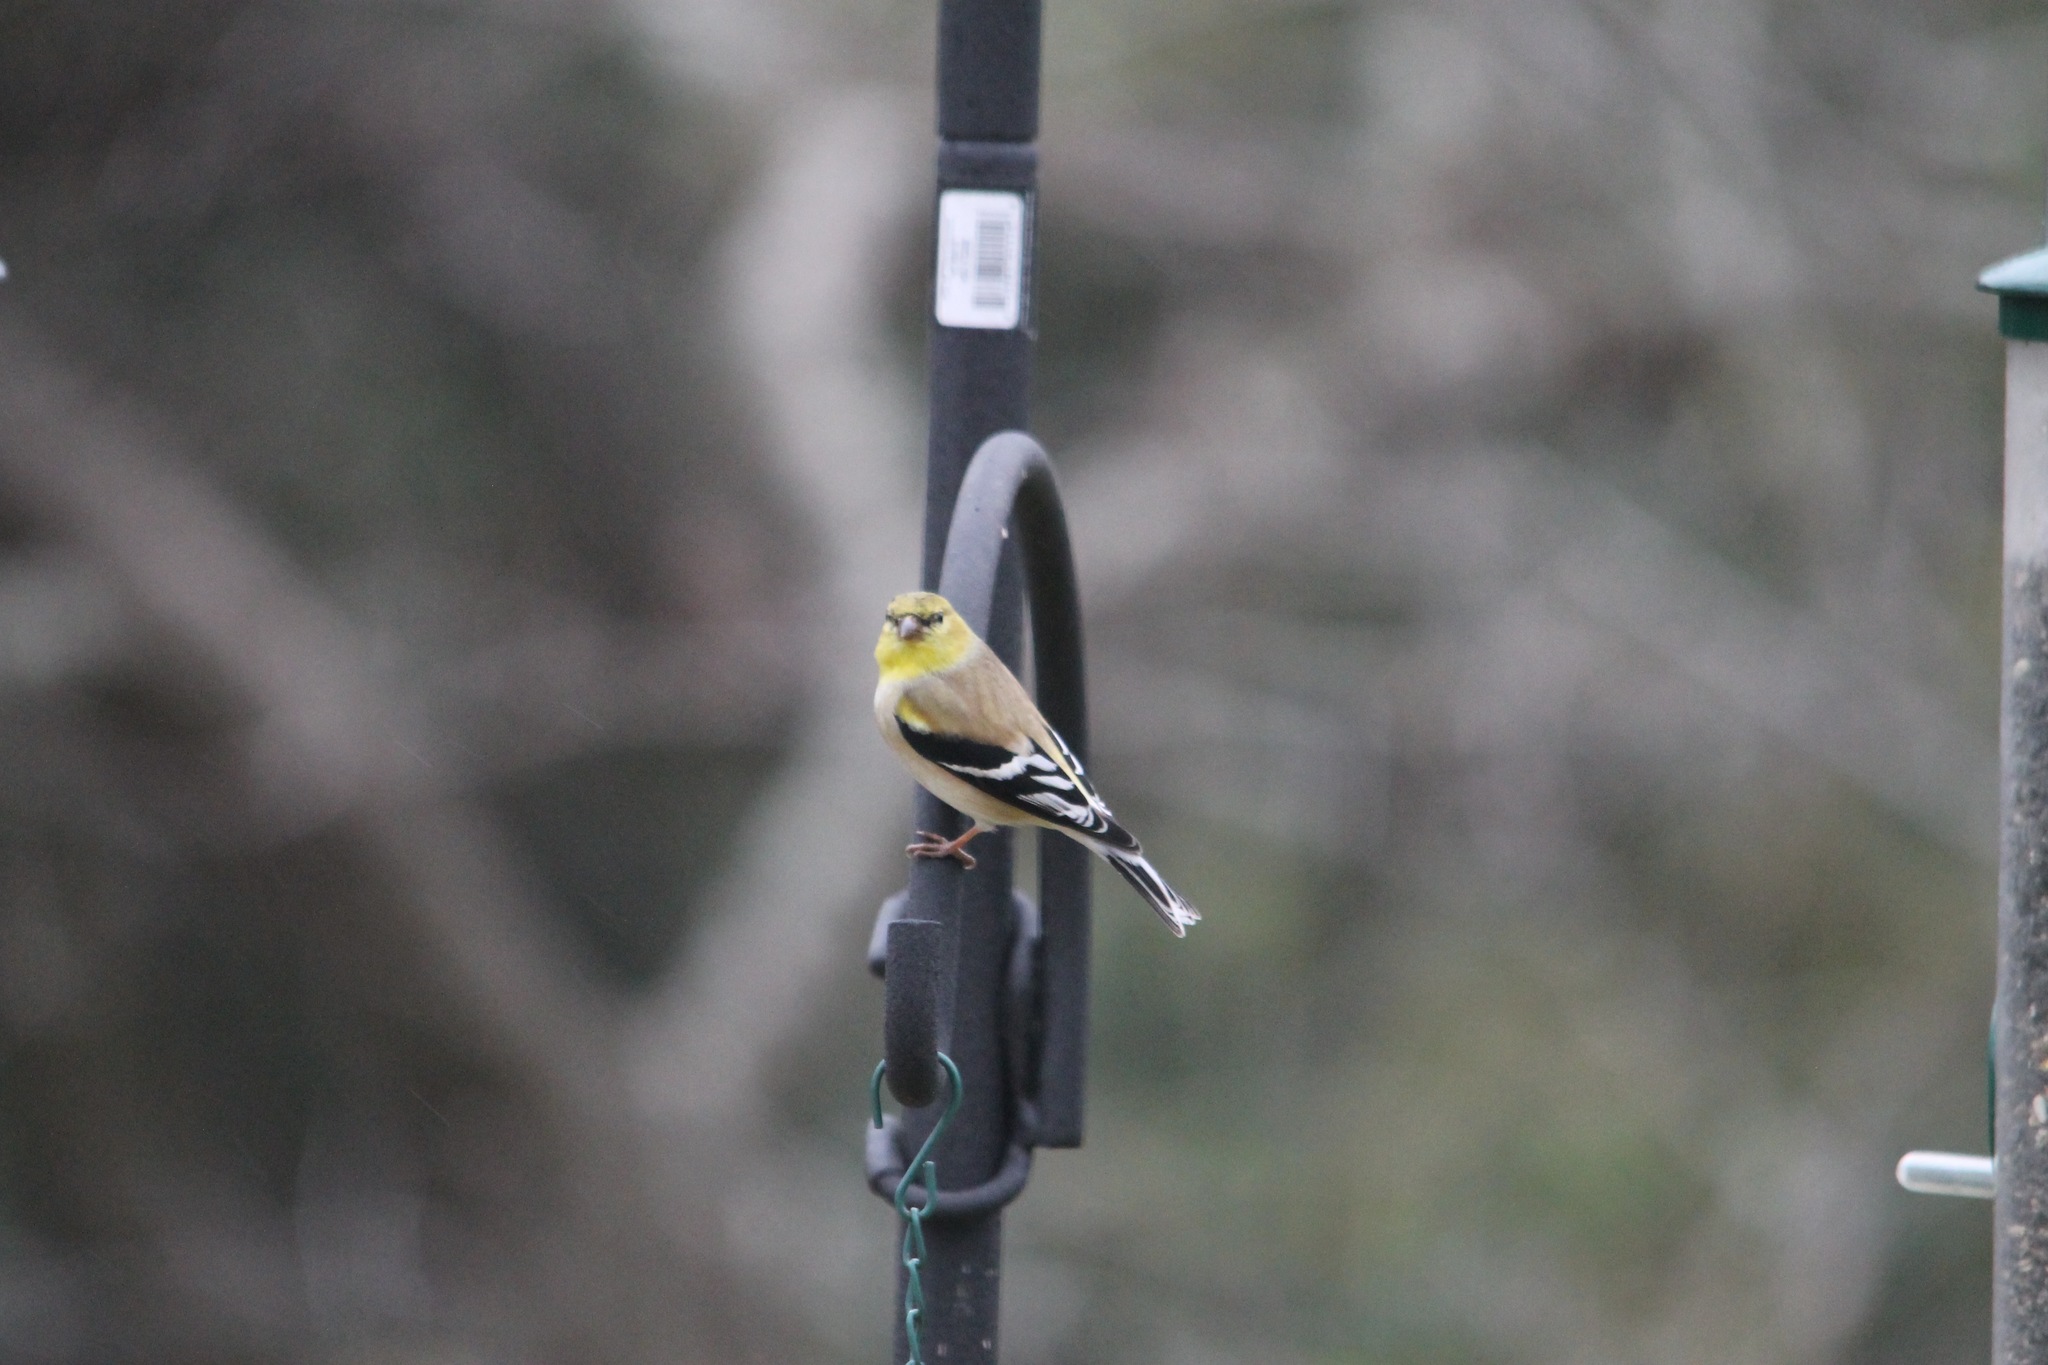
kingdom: Animalia
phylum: Chordata
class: Aves
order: Passeriformes
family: Fringillidae
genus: Spinus
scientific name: Spinus tristis
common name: American goldfinch
